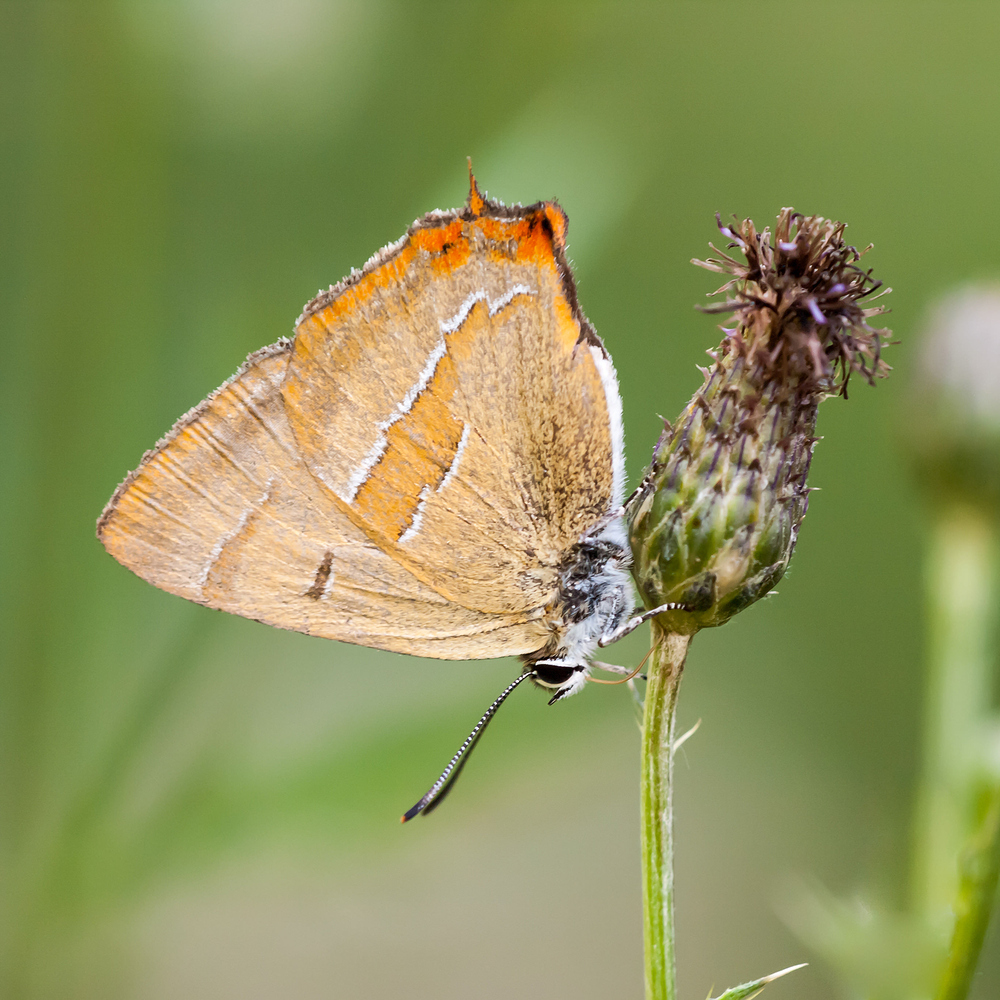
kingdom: Animalia
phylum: Arthropoda
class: Insecta
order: Lepidoptera
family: Lycaenidae
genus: Thecla
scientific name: Thecla betulae
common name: Brown hairstreak
